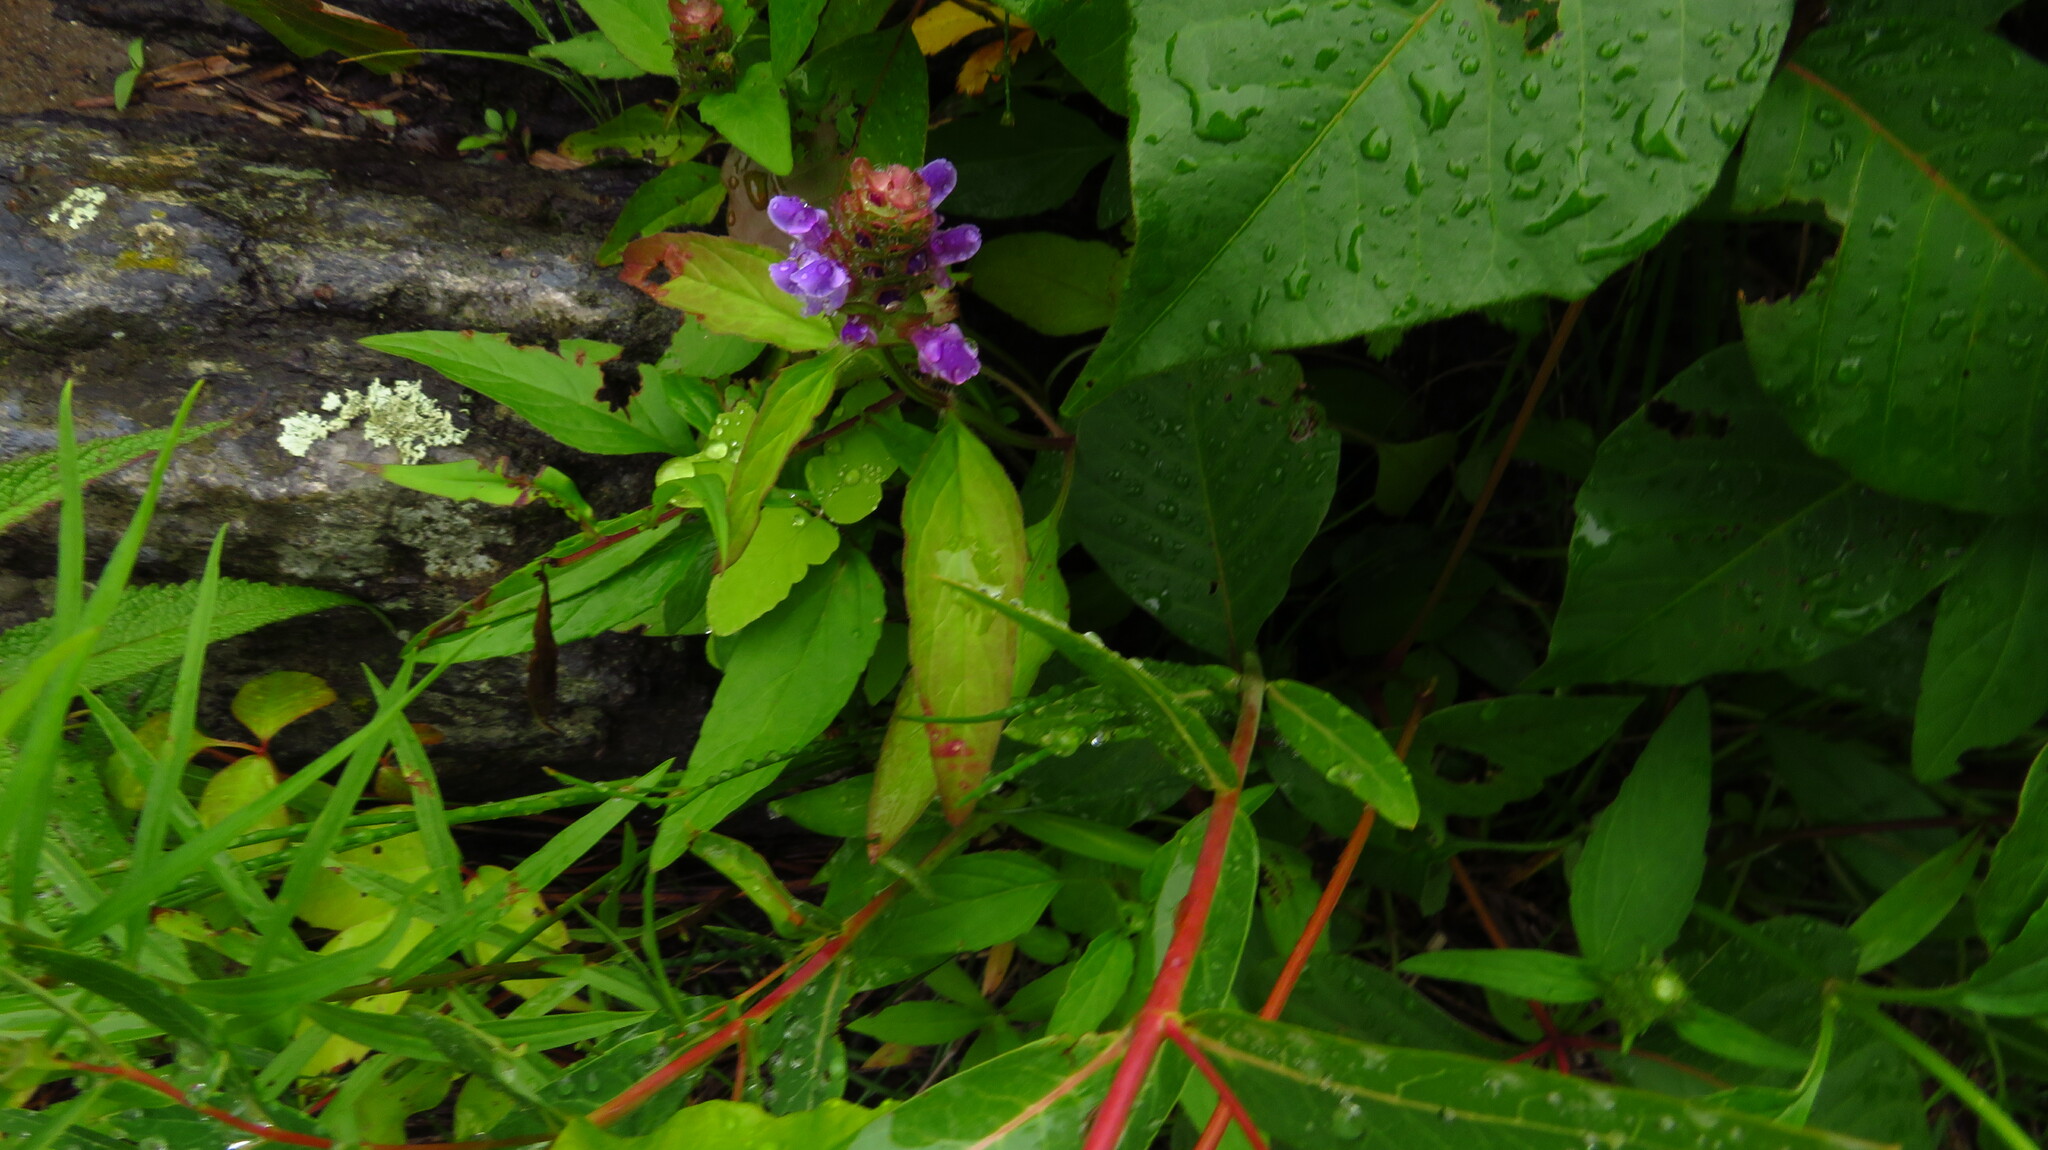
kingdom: Plantae
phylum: Tracheophyta
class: Magnoliopsida
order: Lamiales
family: Lamiaceae
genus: Prunella
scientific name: Prunella vulgaris
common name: Heal-all
